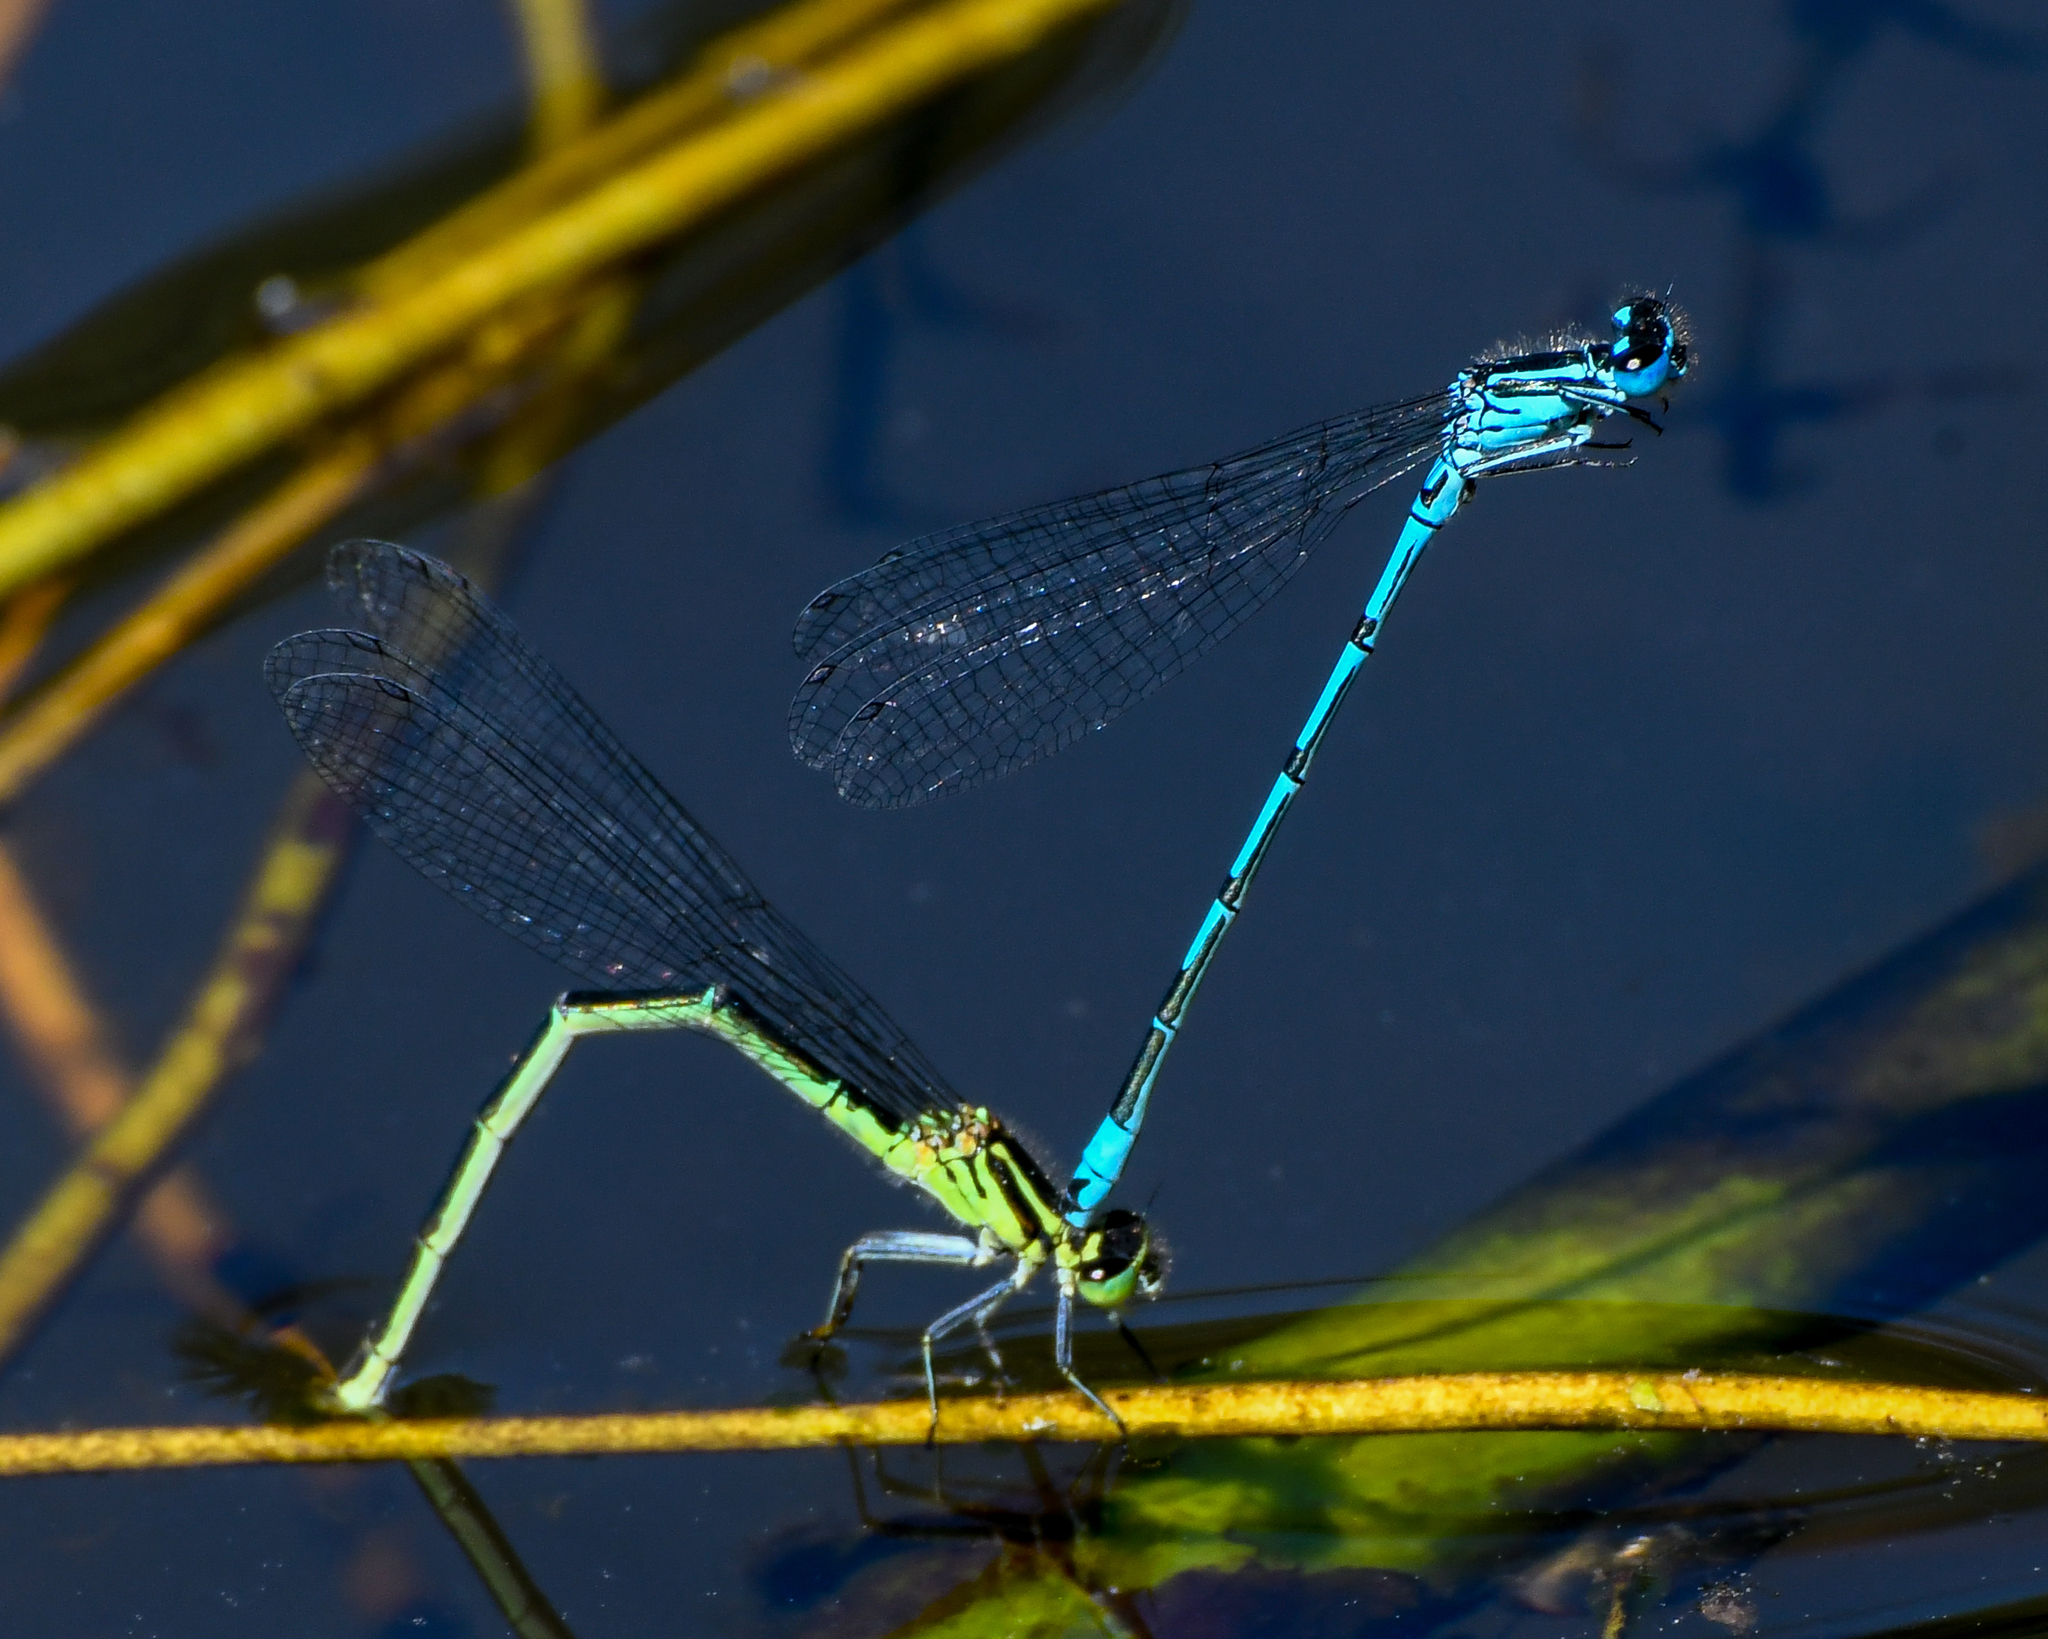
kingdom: Animalia
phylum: Arthropoda
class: Insecta
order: Odonata
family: Coenagrionidae
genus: Coenagrion
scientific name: Coenagrion puella
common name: Azure damselfly
